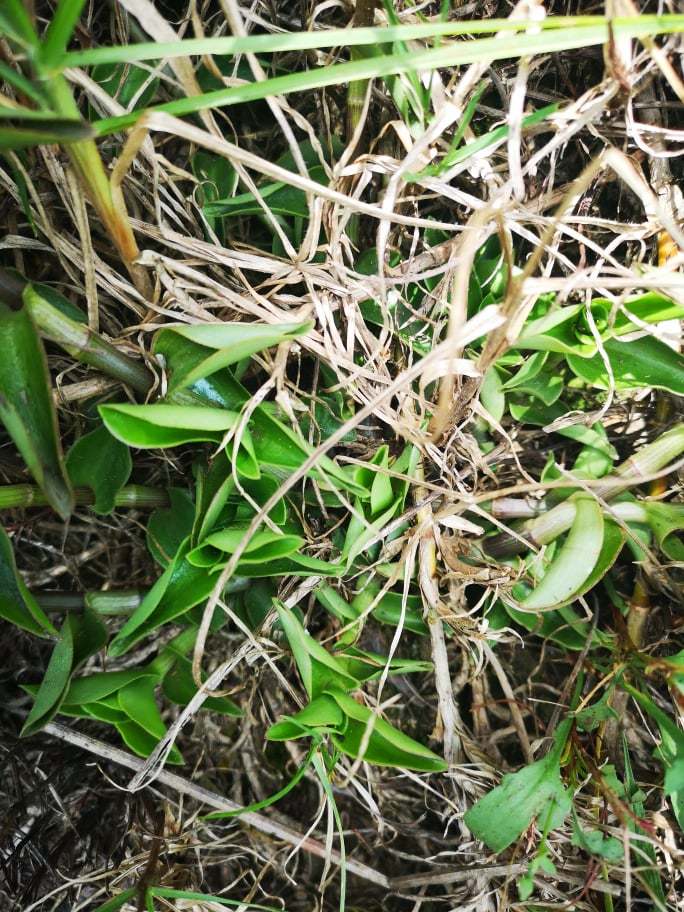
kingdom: Plantae
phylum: Tracheophyta
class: Liliopsida
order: Commelinales
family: Commelinaceae
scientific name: Commelinaceae
